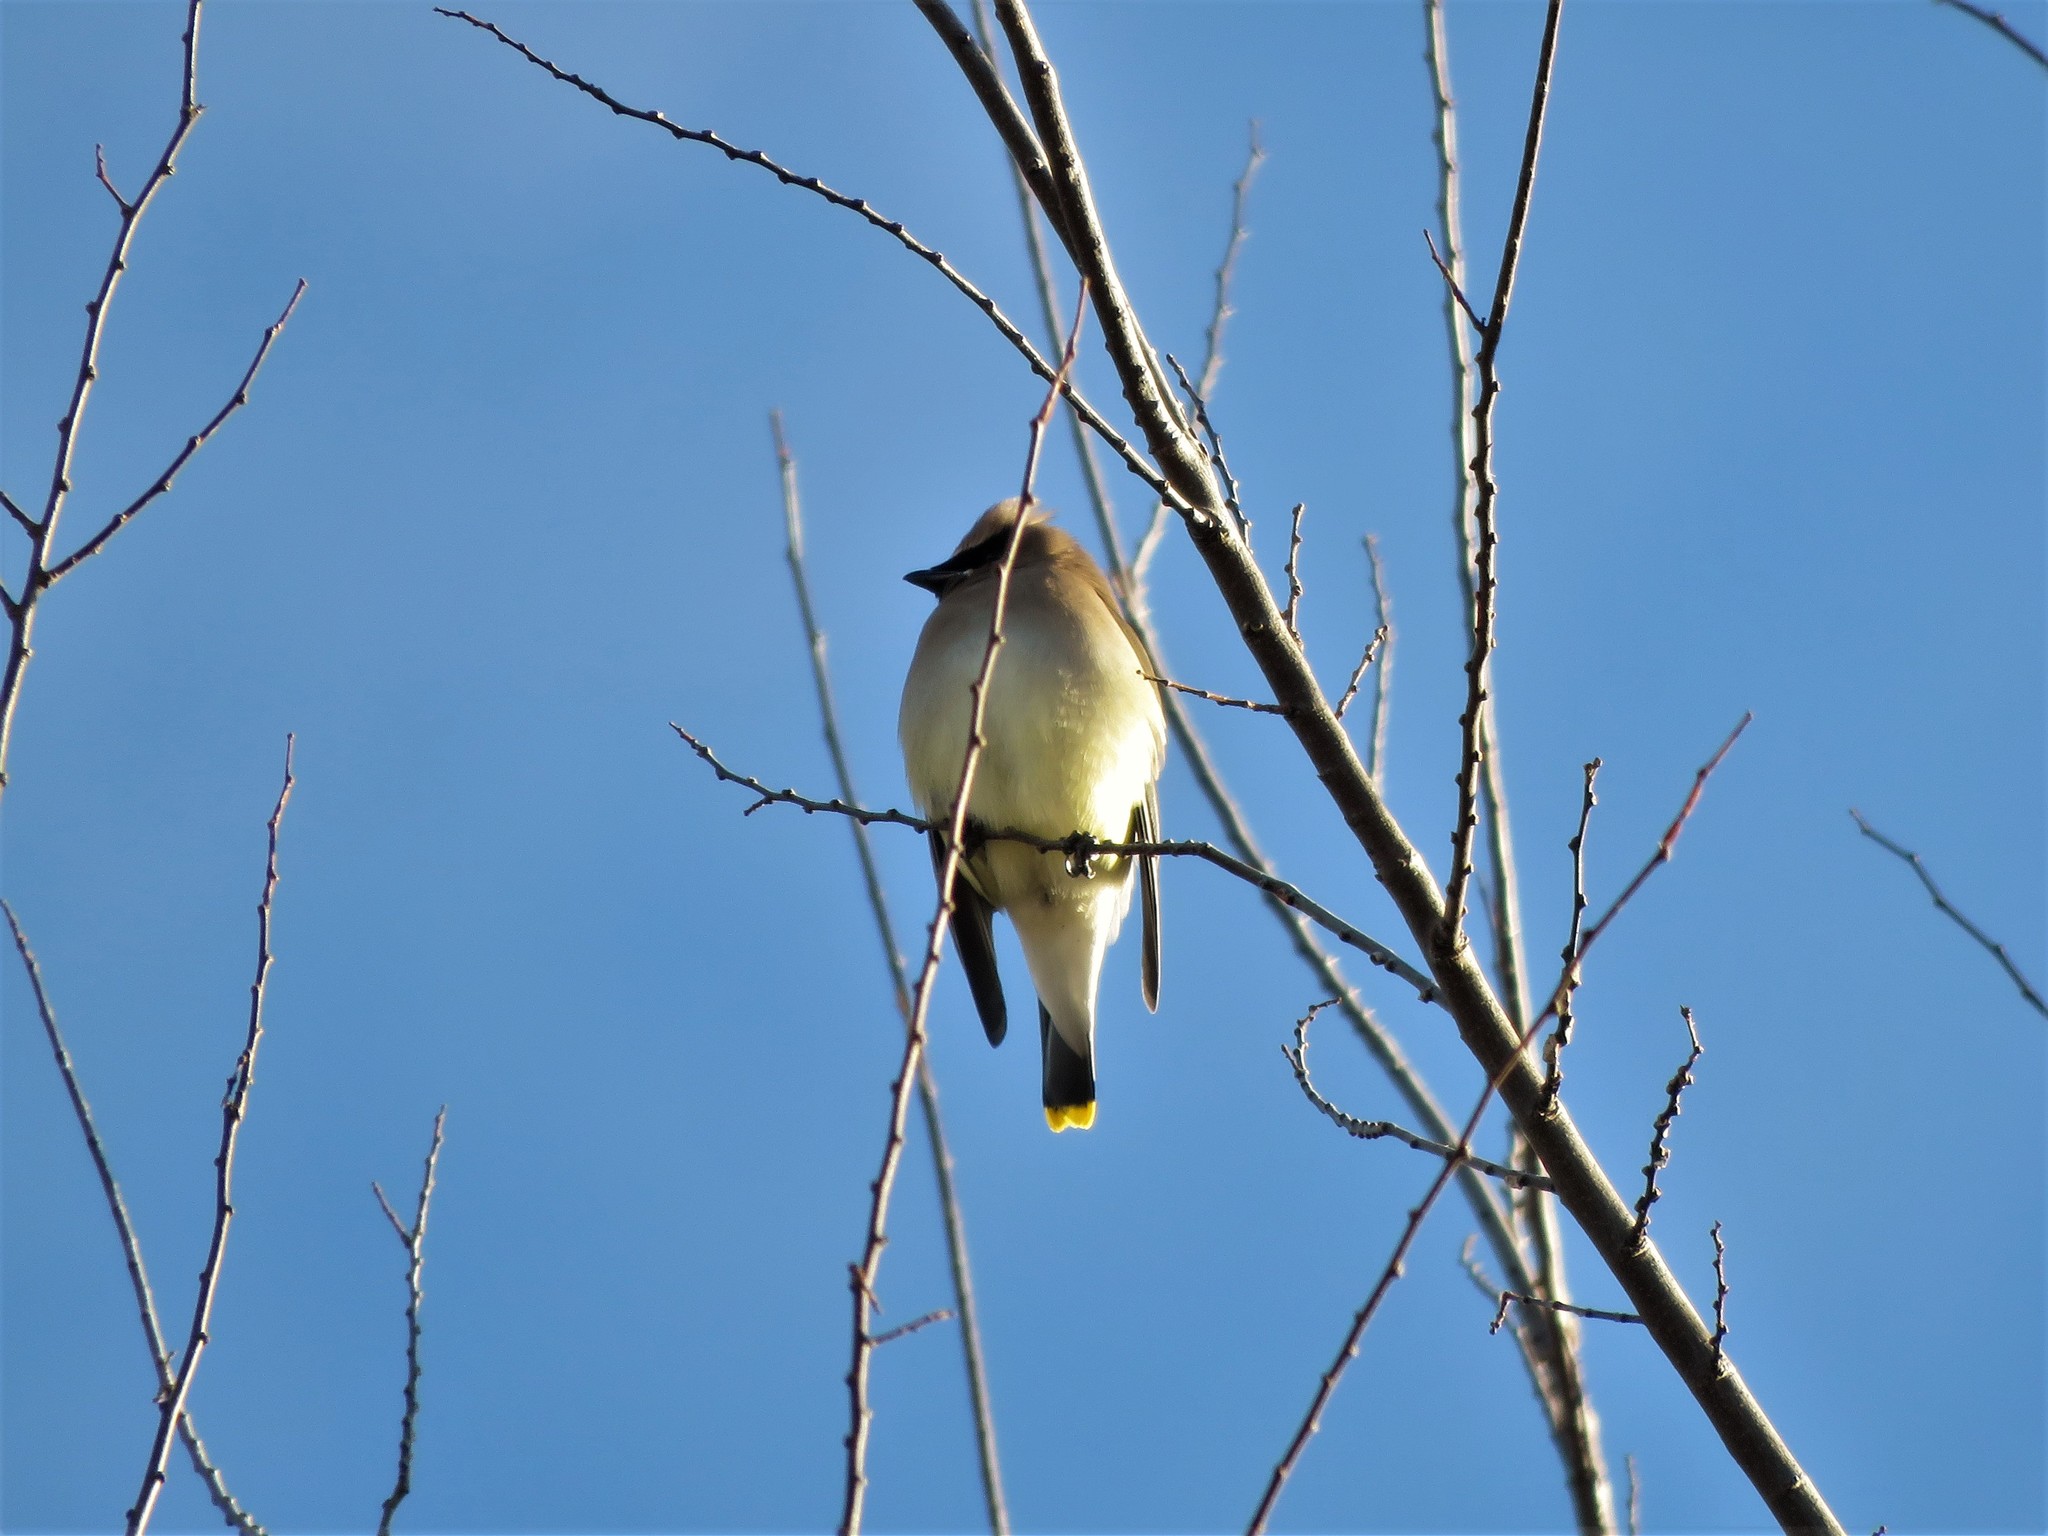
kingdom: Animalia
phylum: Chordata
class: Aves
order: Passeriformes
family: Bombycillidae
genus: Bombycilla
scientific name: Bombycilla cedrorum
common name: Cedar waxwing
